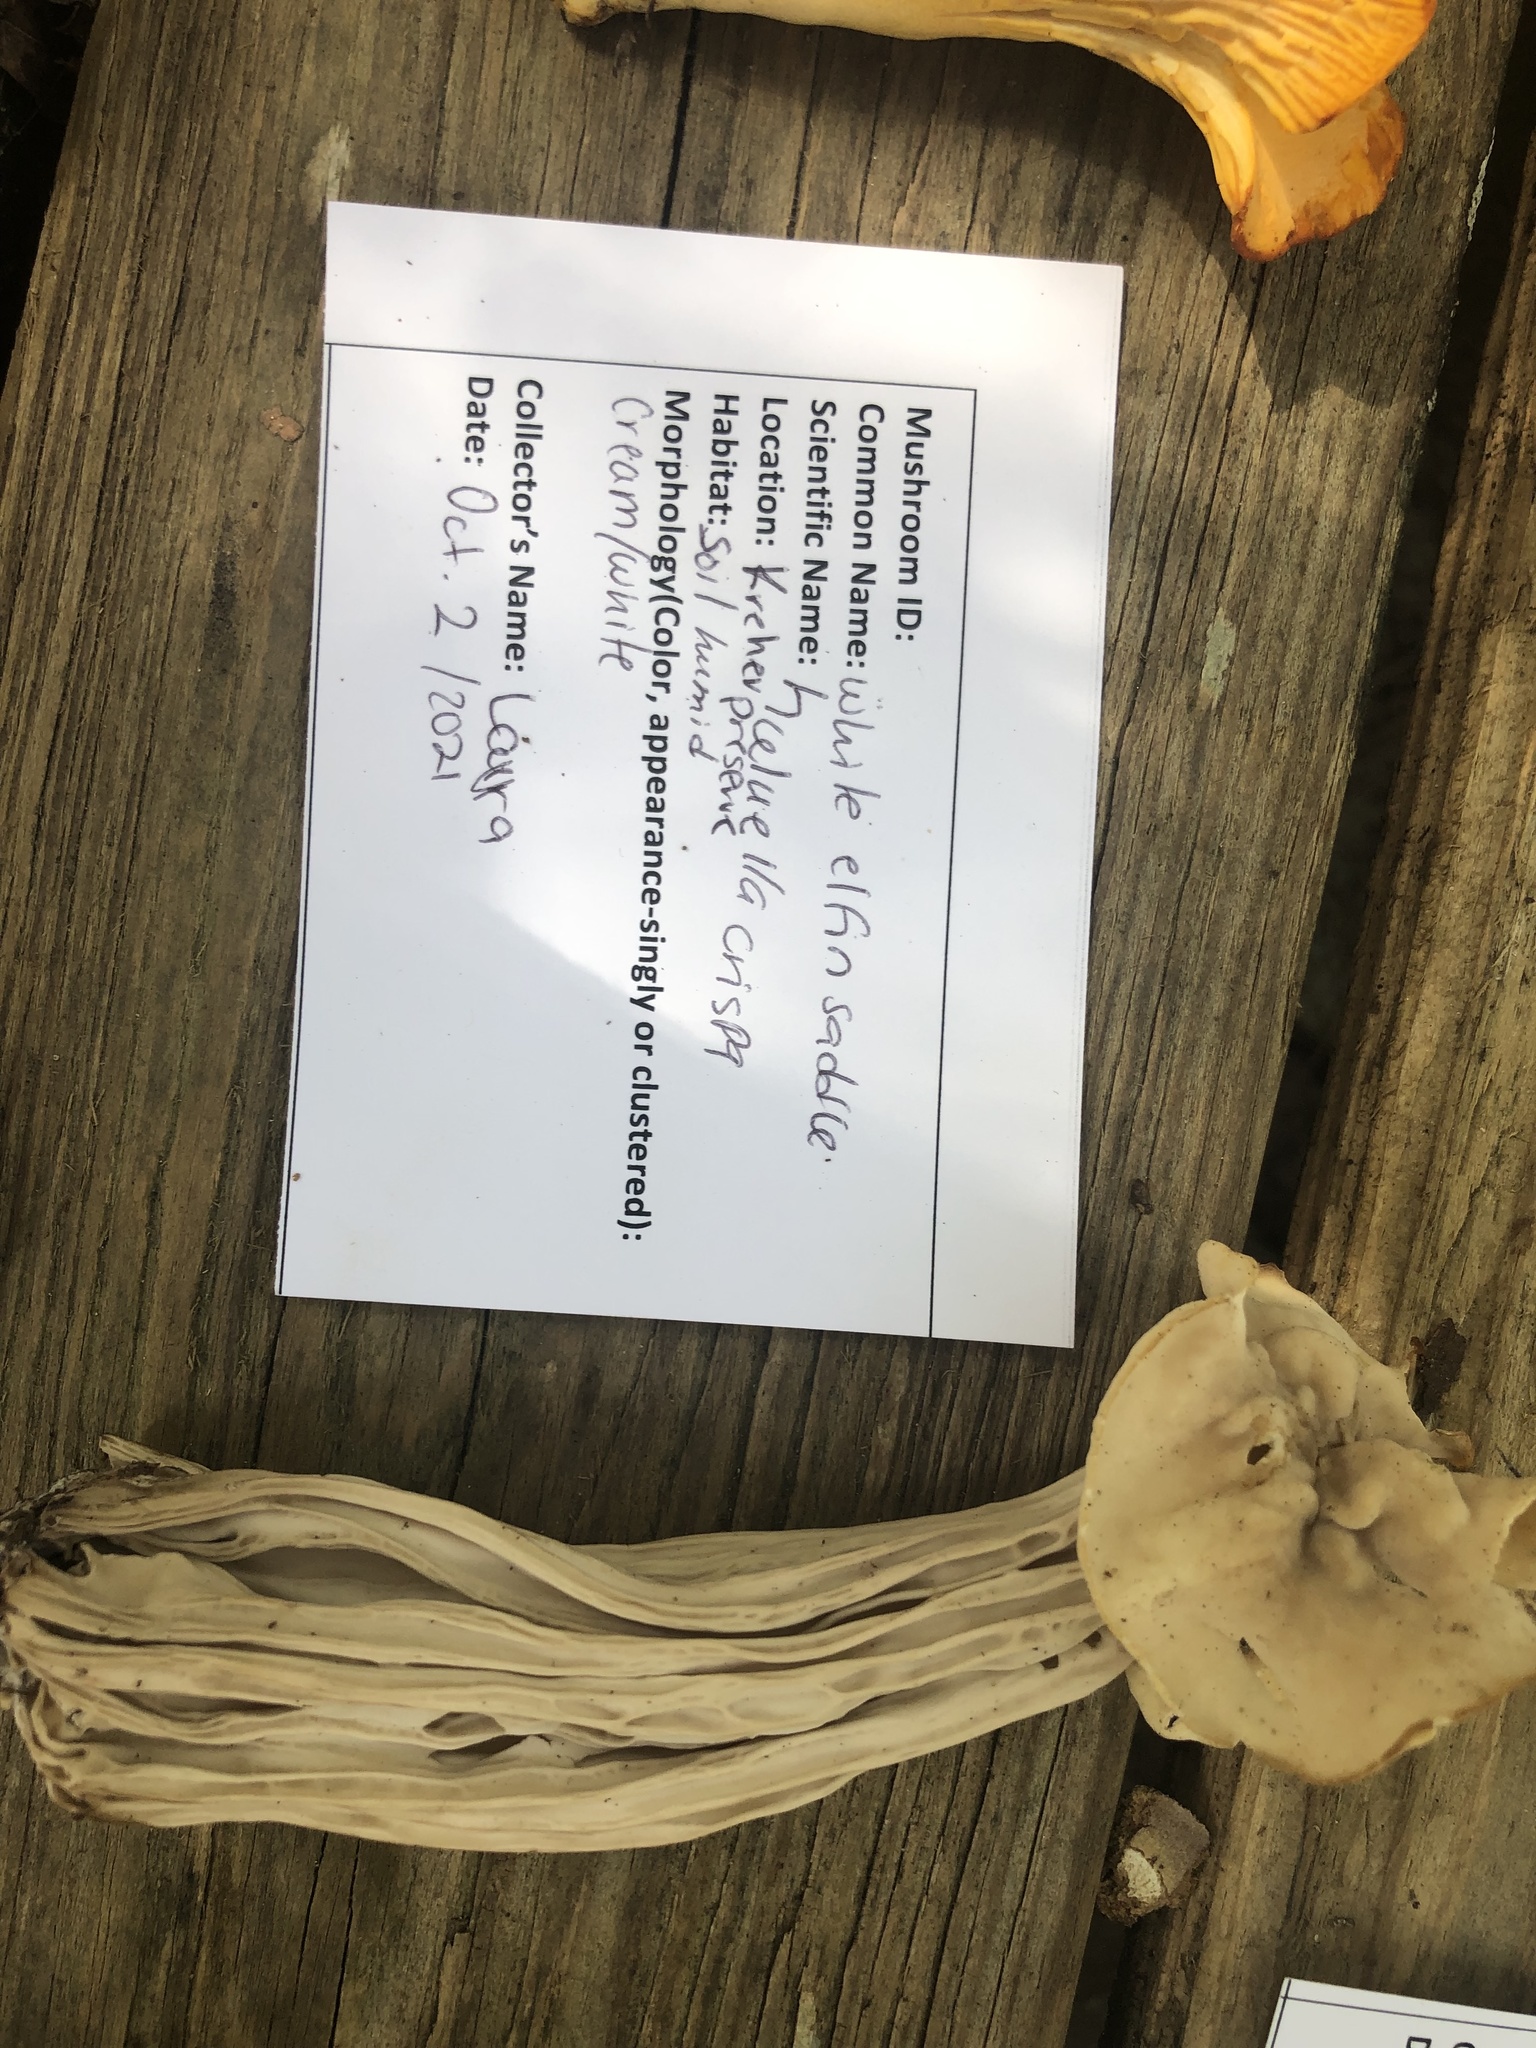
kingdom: Fungi
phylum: Ascomycota
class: Pezizomycetes
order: Pezizales
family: Helvellaceae
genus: Helvella
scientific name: Helvella crispa
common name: White saddle
